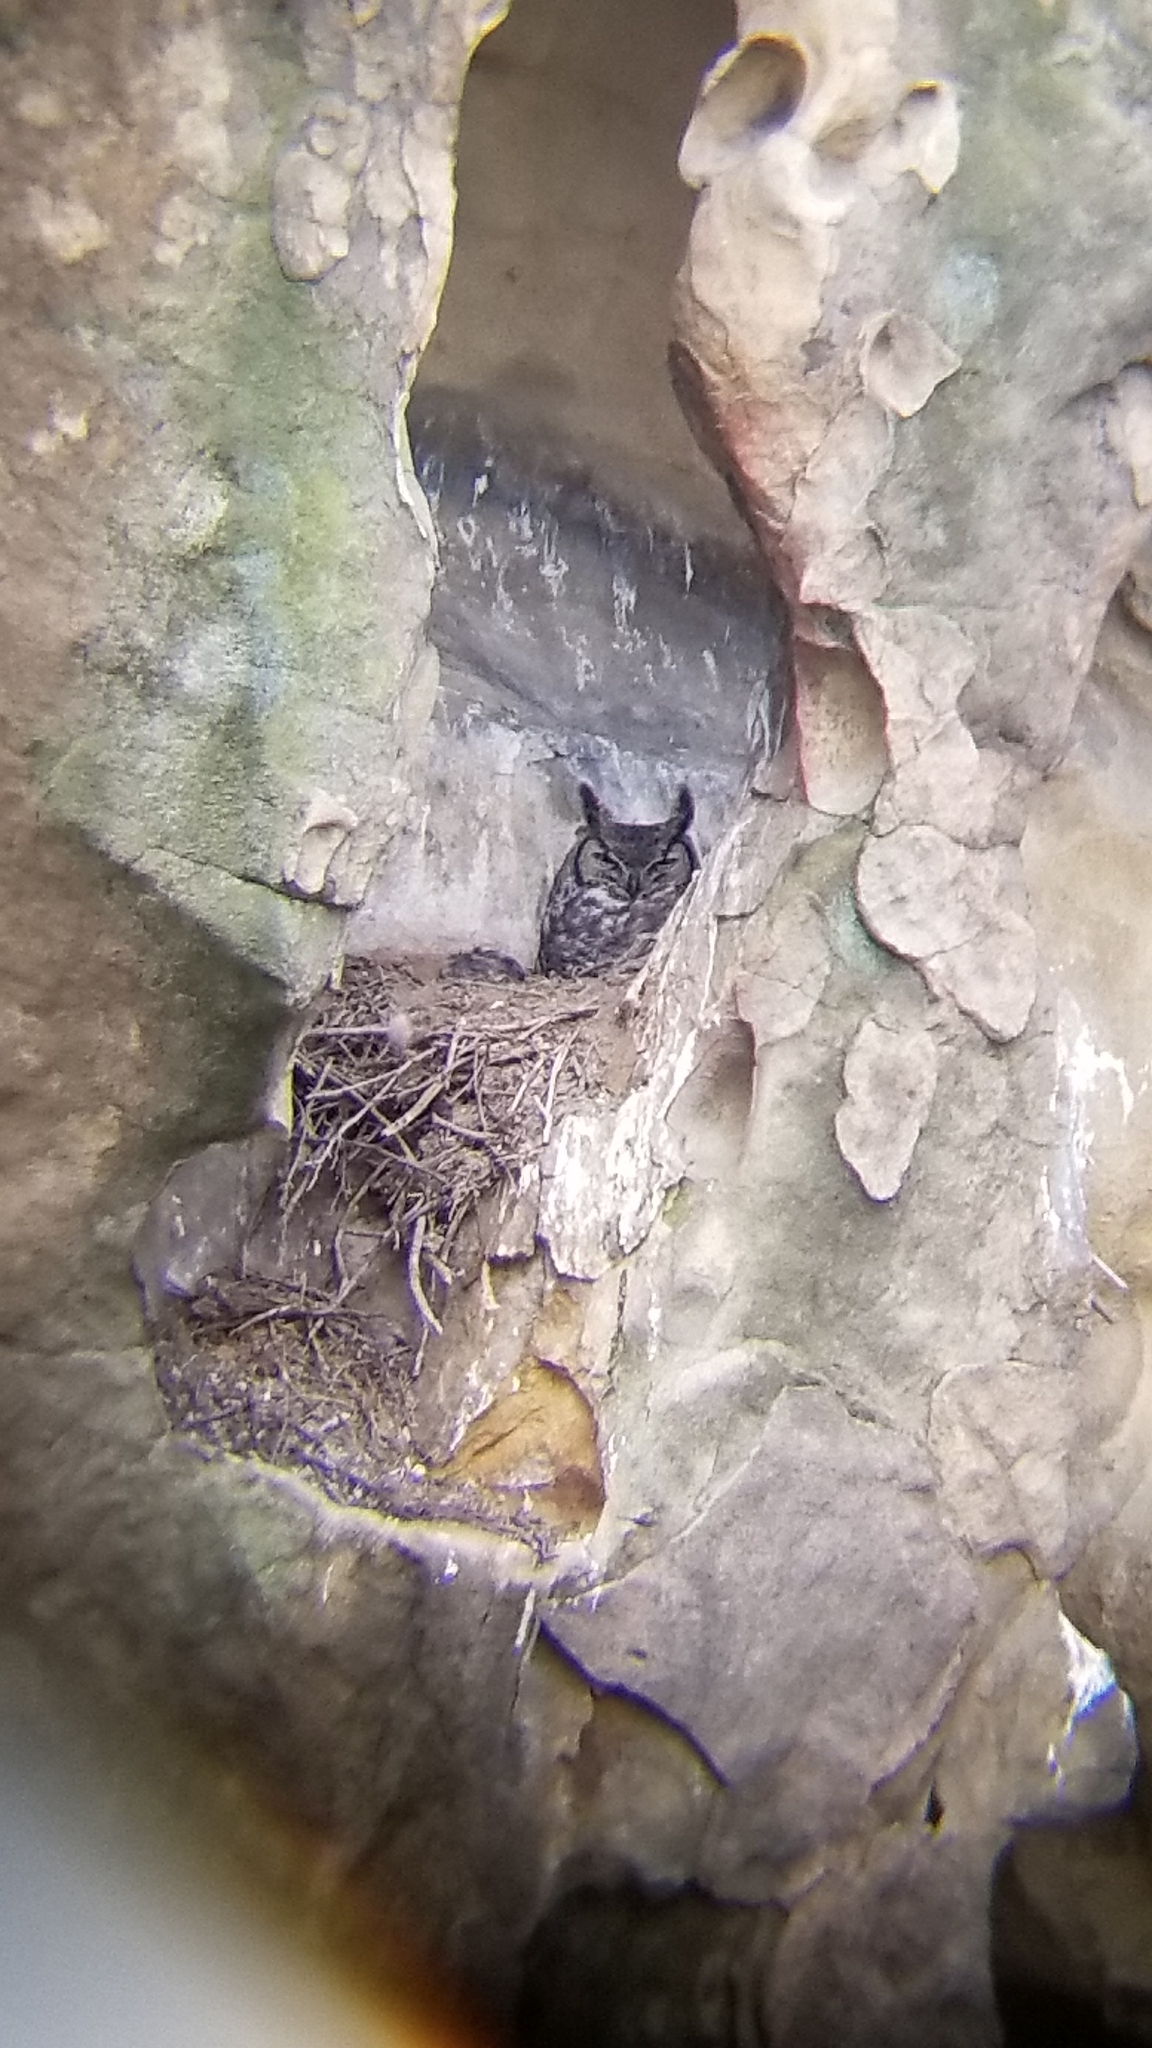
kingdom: Animalia
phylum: Chordata
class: Aves
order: Strigiformes
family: Strigidae
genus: Bubo
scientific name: Bubo virginianus
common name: Great horned owl
